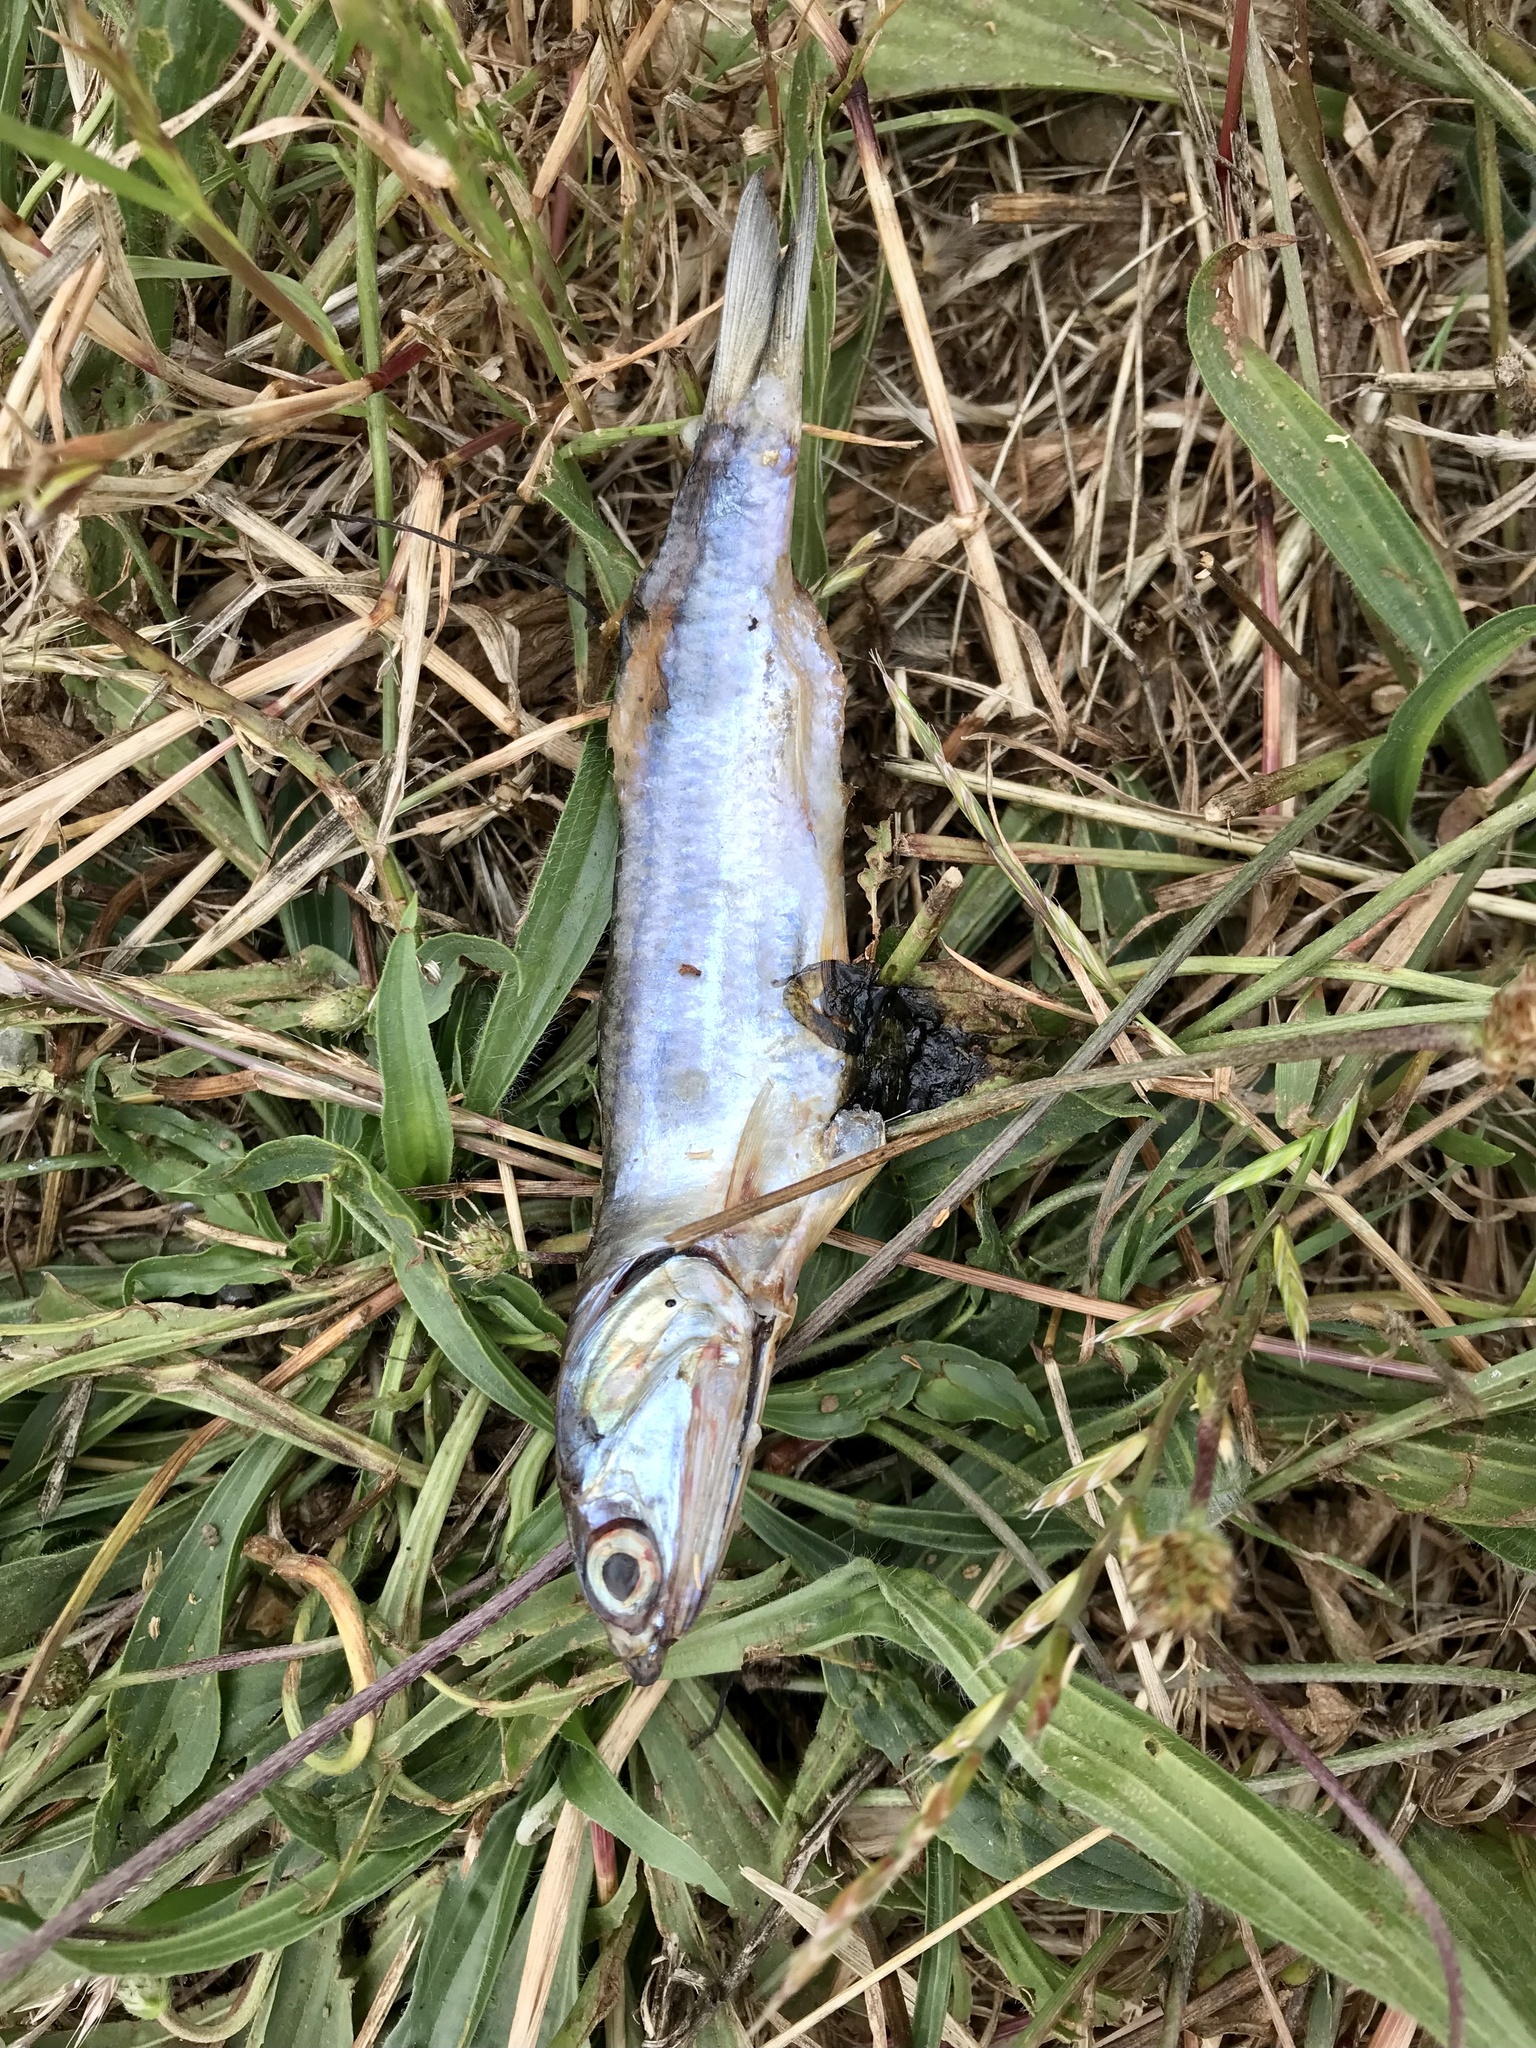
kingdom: Animalia
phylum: Chordata
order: Clupeiformes
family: Engraulidae
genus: Engraulis
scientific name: Engraulis mordax
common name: Northern anchovy
